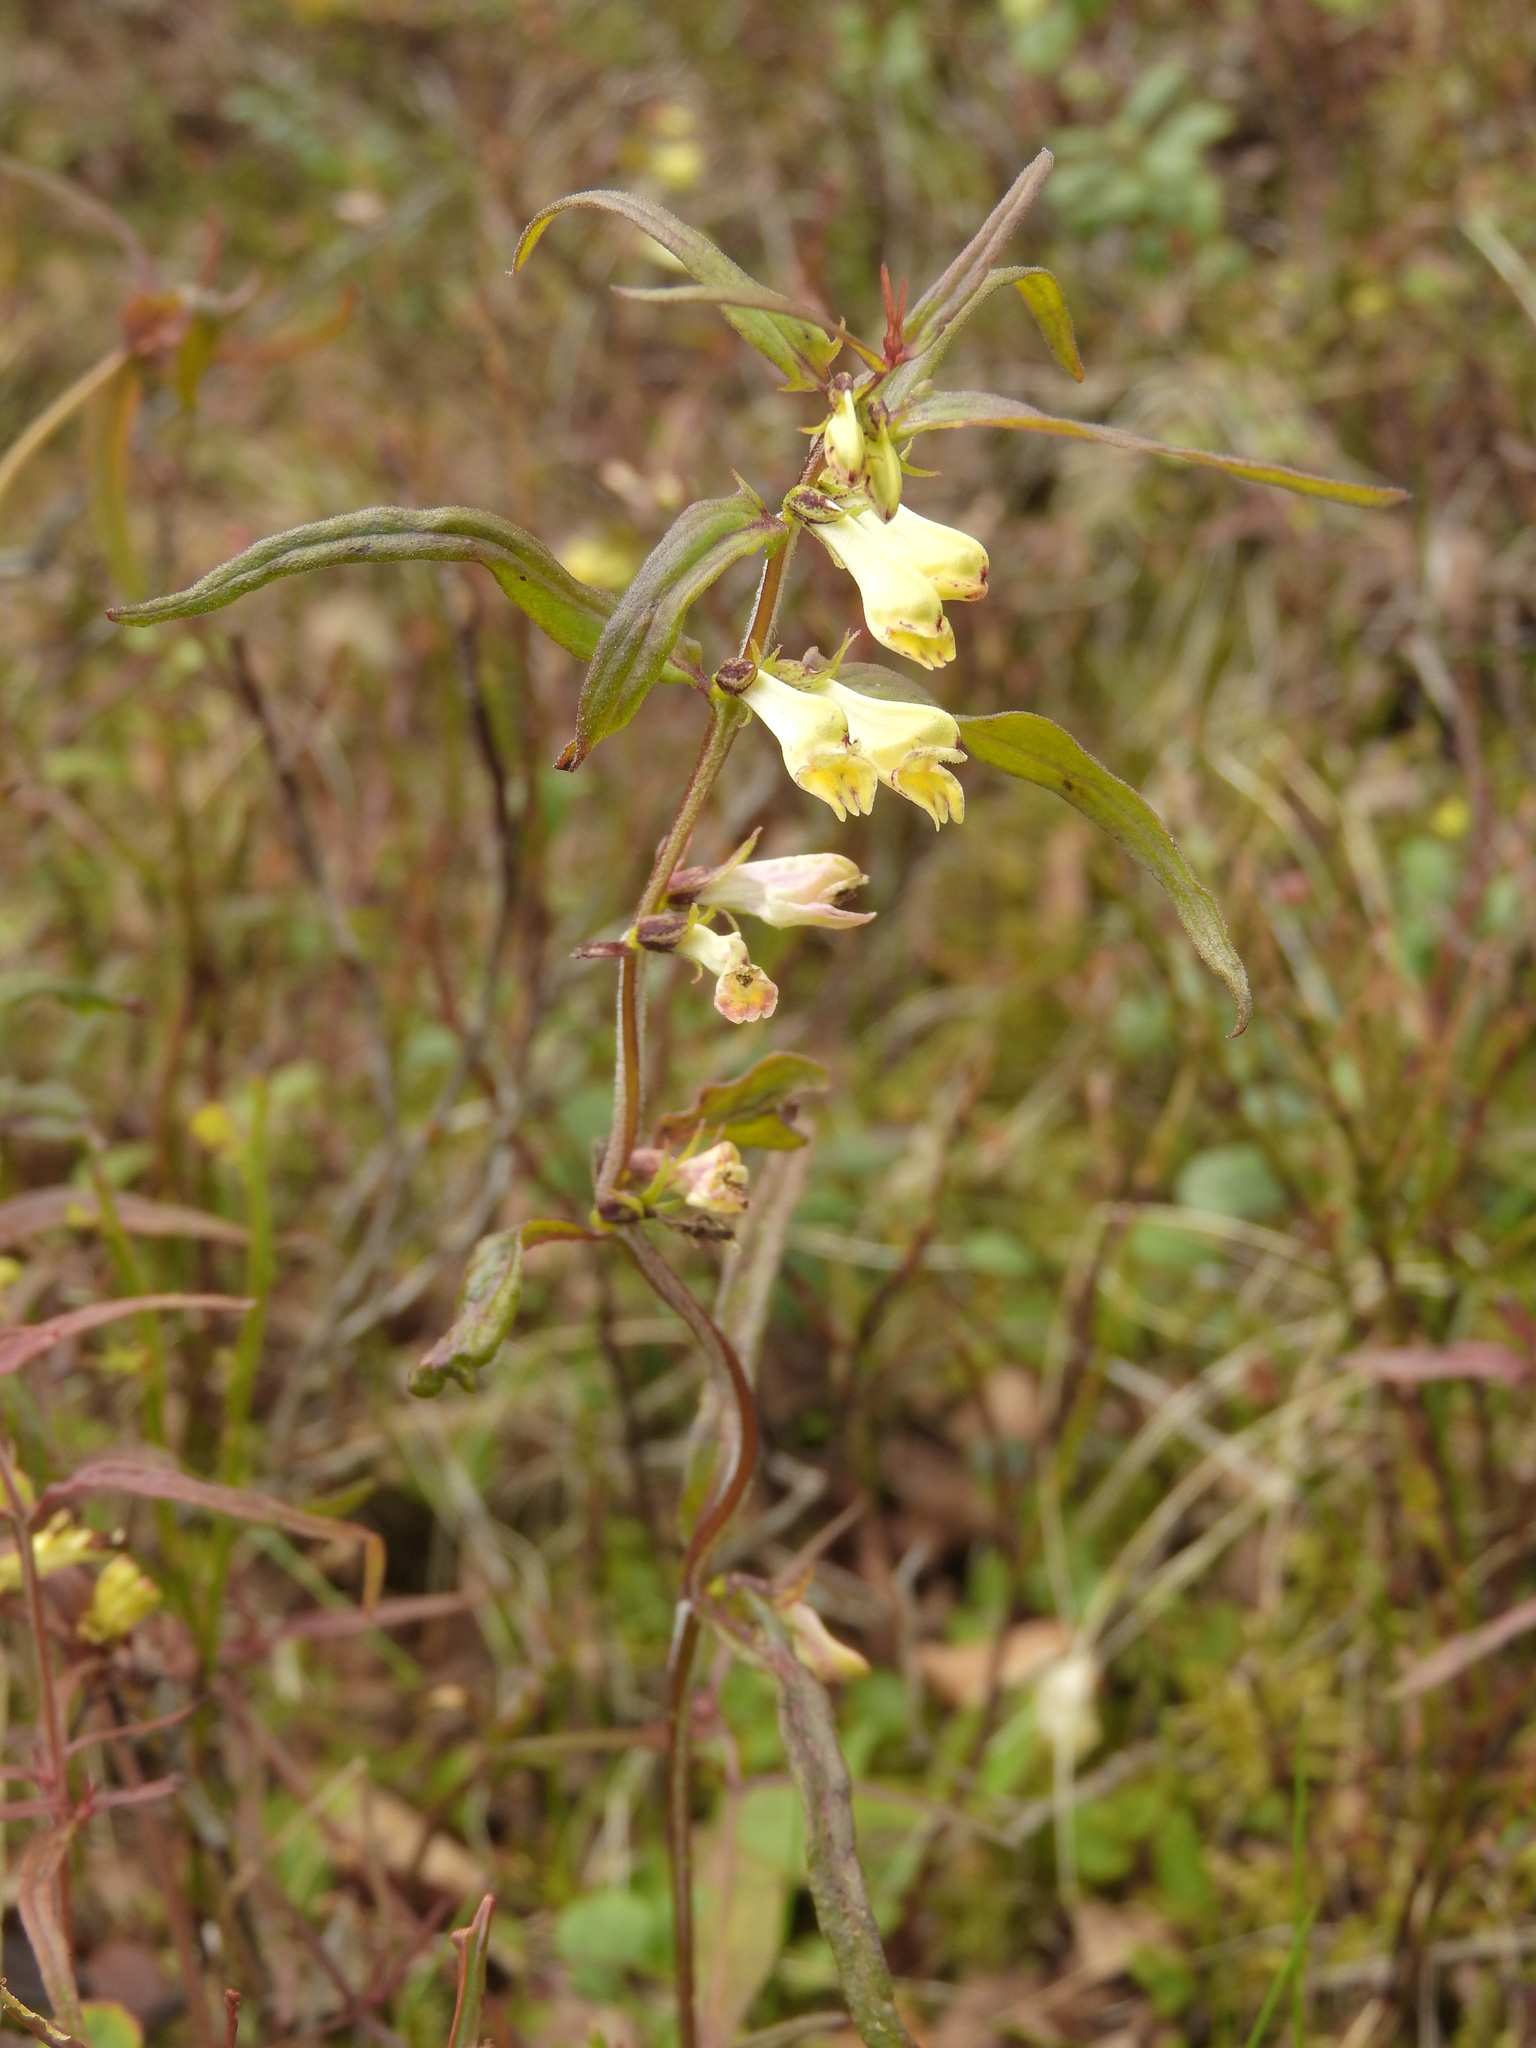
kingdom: Plantae
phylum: Tracheophyta
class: Magnoliopsida
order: Lamiales
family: Orobanchaceae
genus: Melampyrum
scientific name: Melampyrum pratense
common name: Common cow-wheat
